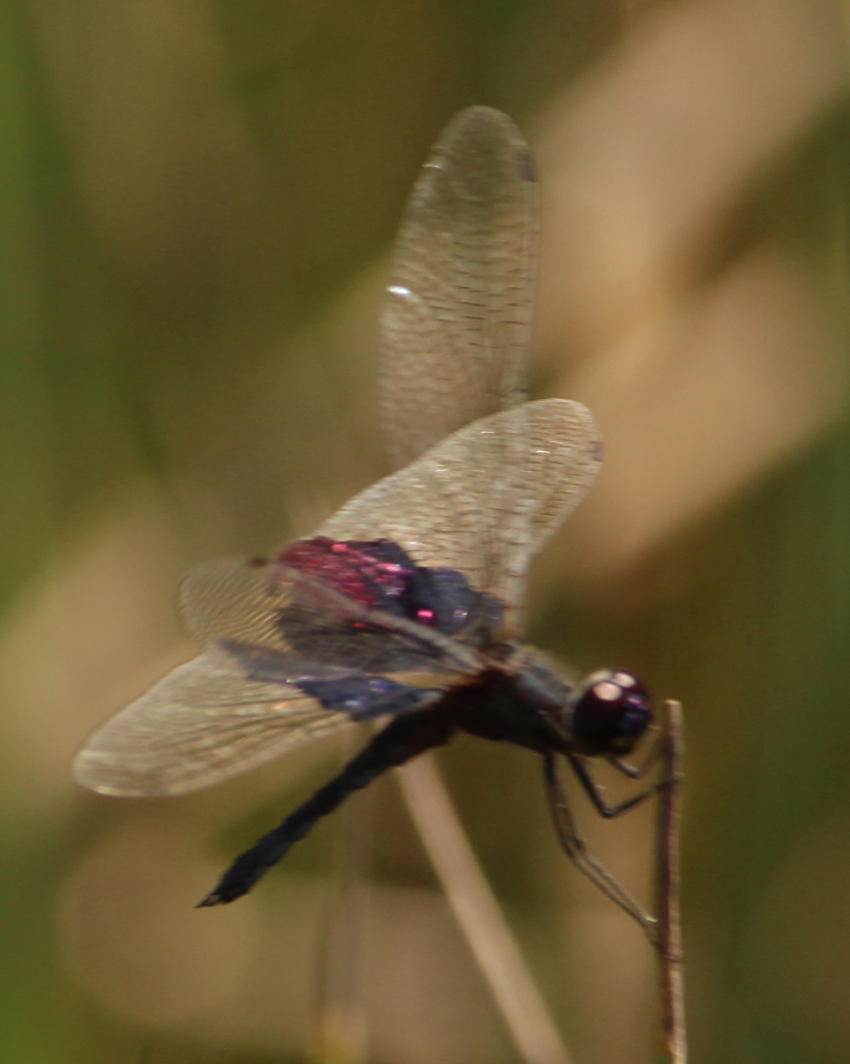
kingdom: Animalia
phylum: Arthropoda
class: Insecta
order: Odonata
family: Libellulidae
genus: Rhyothemis
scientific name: Rhyothemis semihyalina
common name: Phantom flutterer
